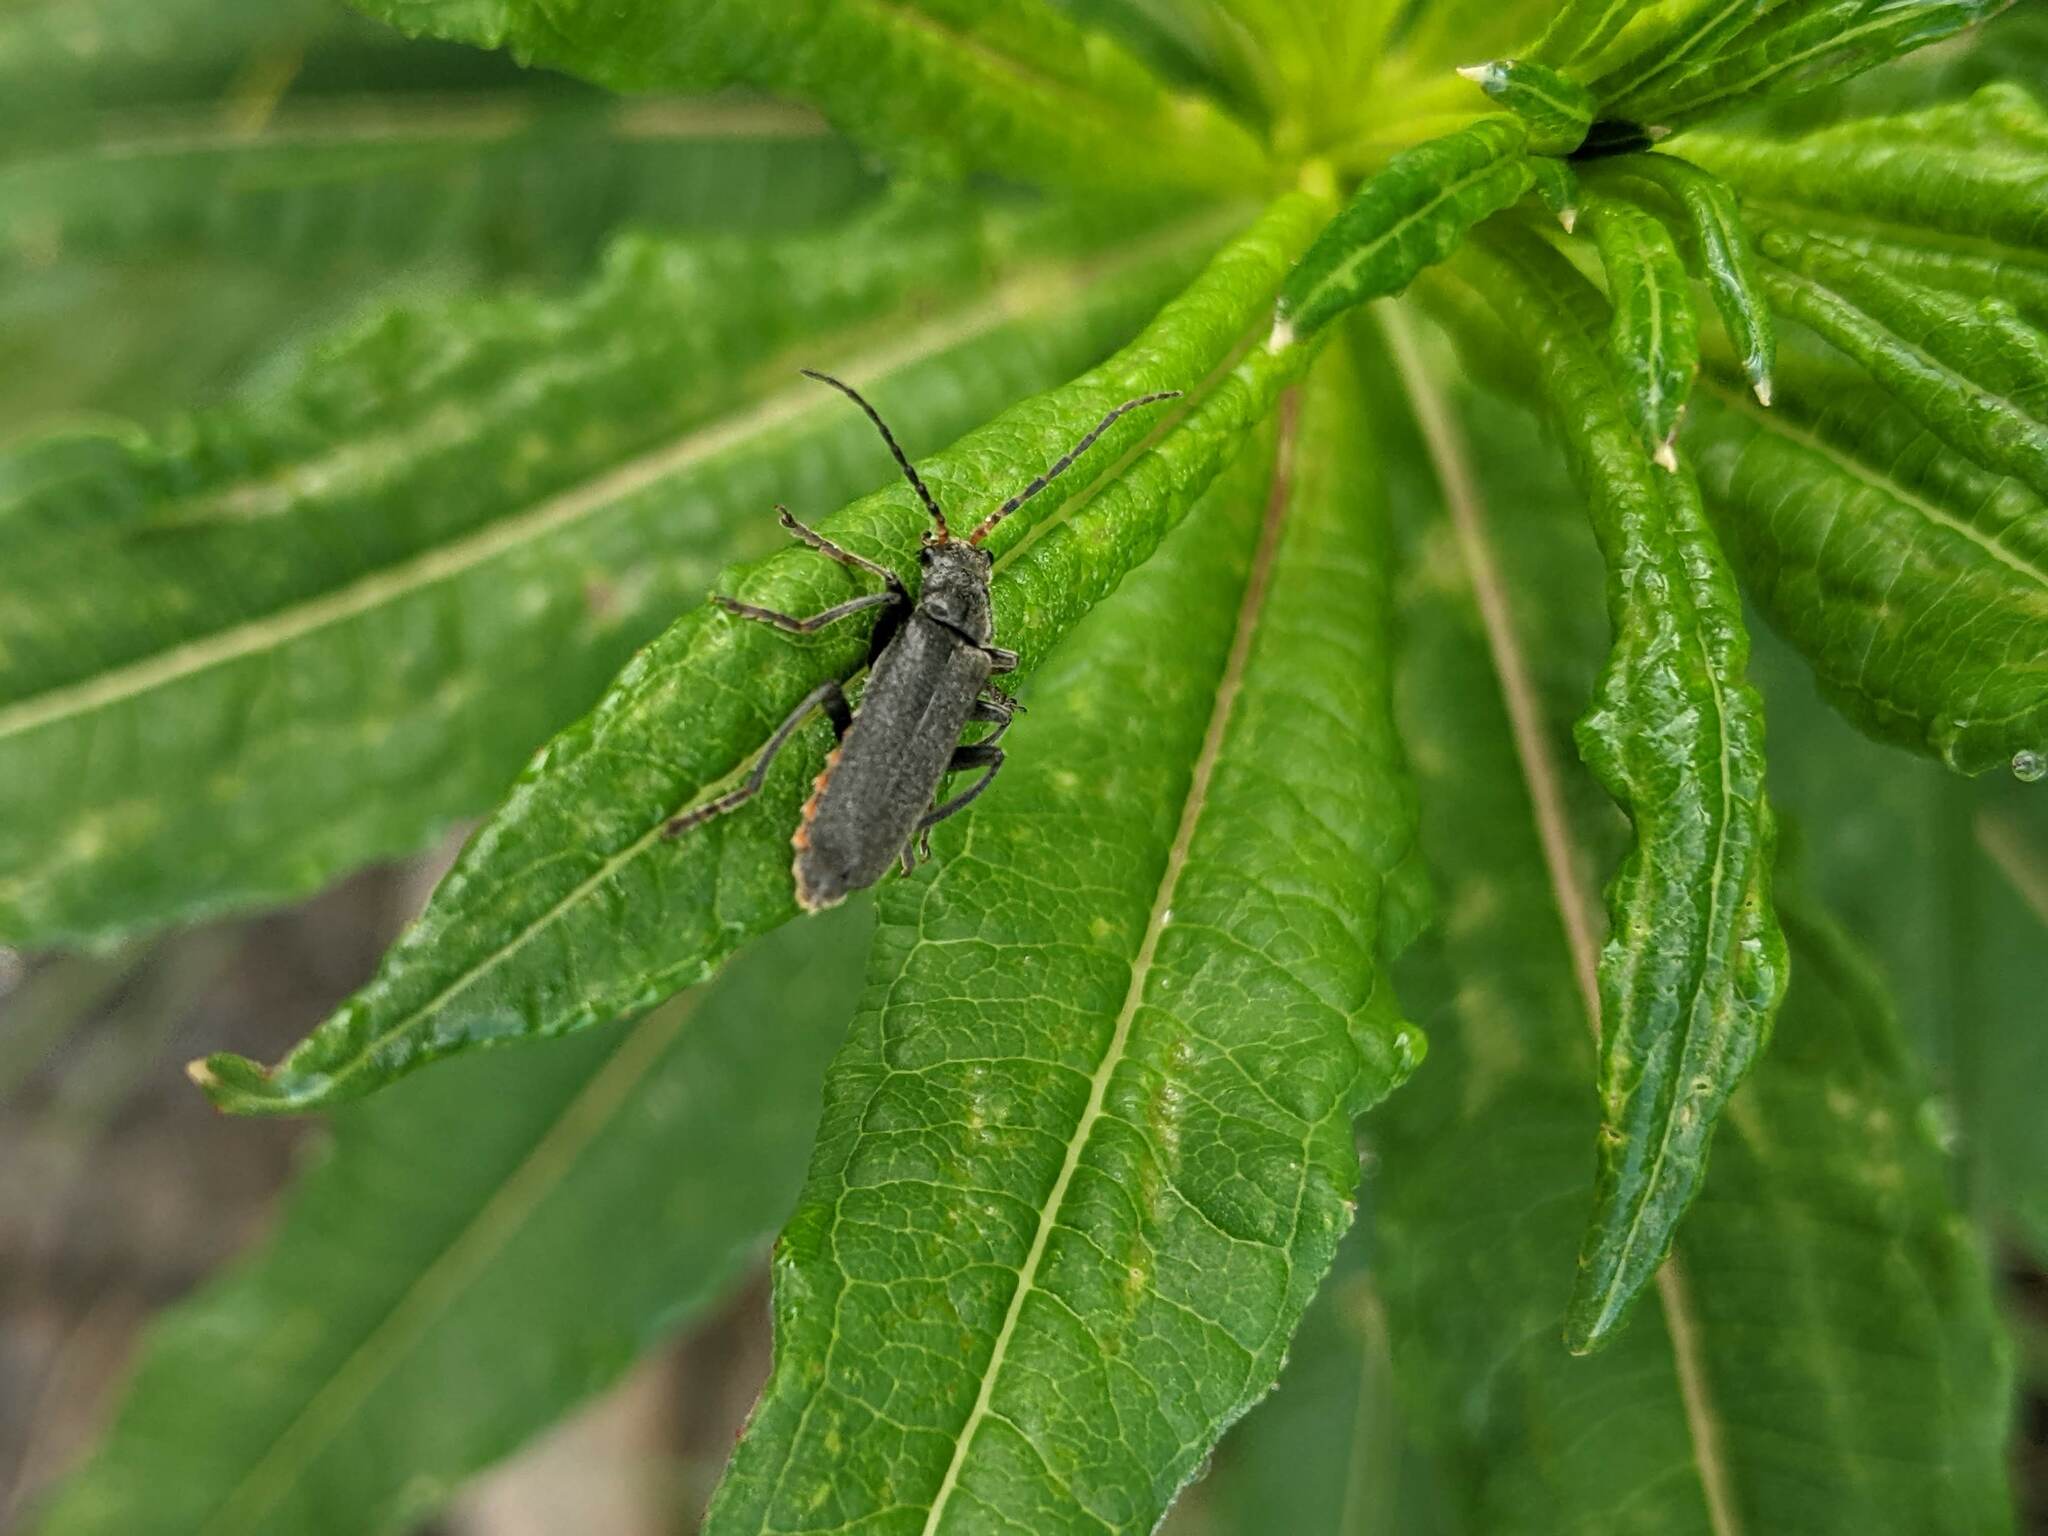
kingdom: Animalia
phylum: Arthropoda
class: Insecta
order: Coleoptera
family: Cantharidae
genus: Cantharis
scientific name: Cantharis tristis
